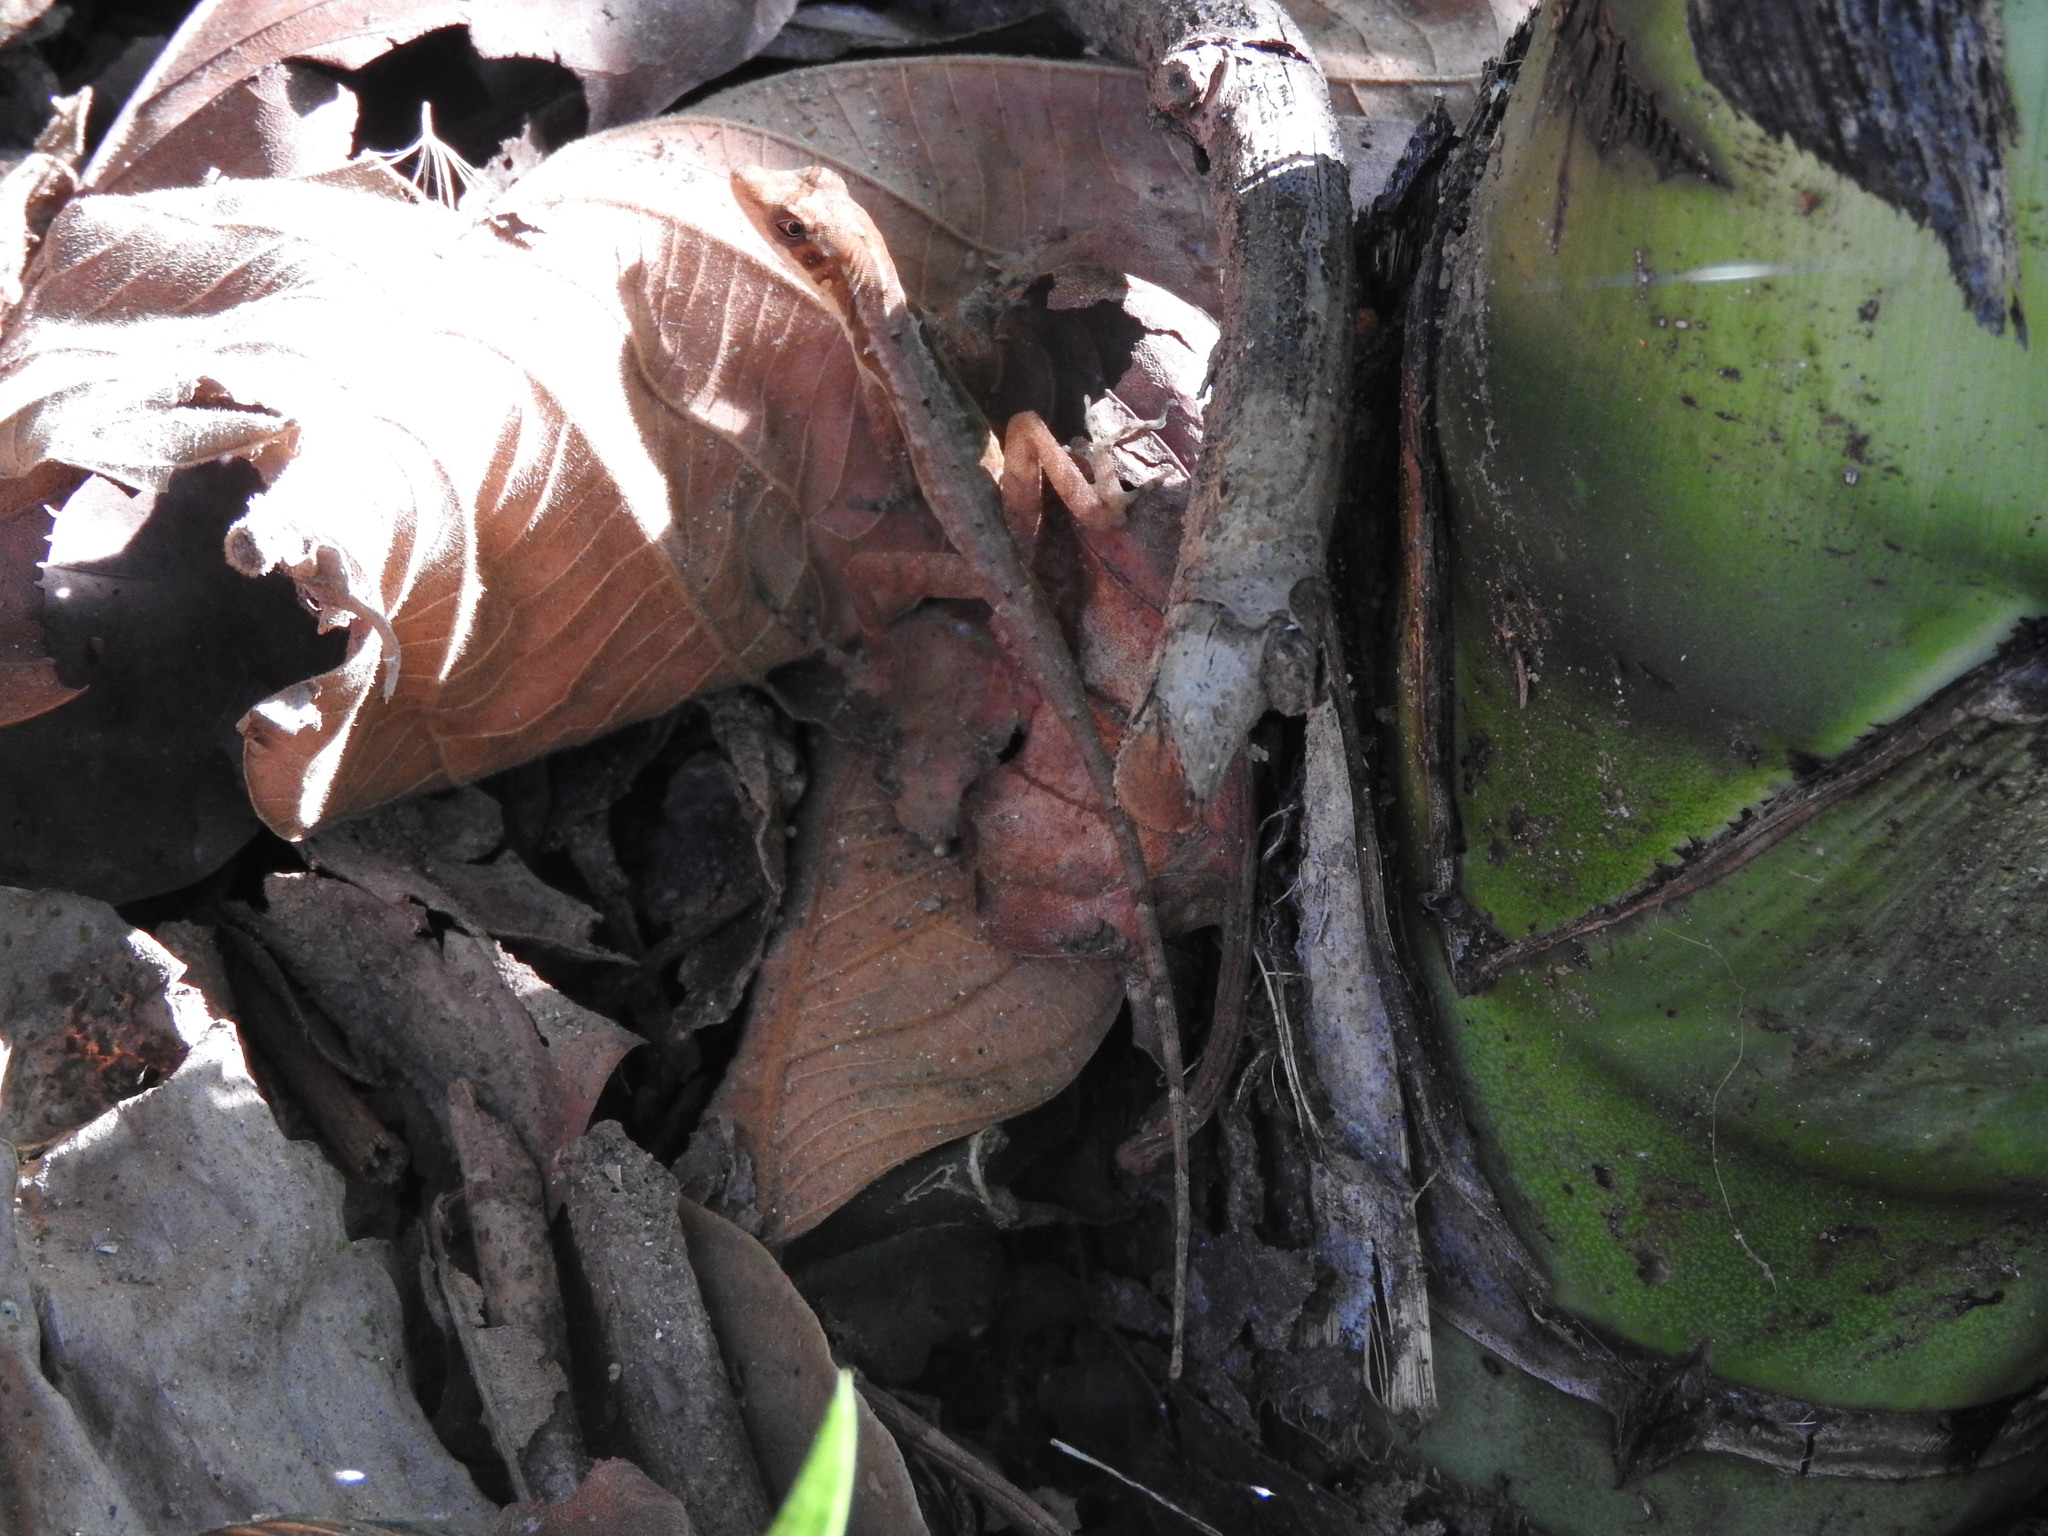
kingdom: Animalia
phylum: Chordata
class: Squamata
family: Dactyloidae
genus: Anolis
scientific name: Anolis dollfusianus
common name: Coffee anole
